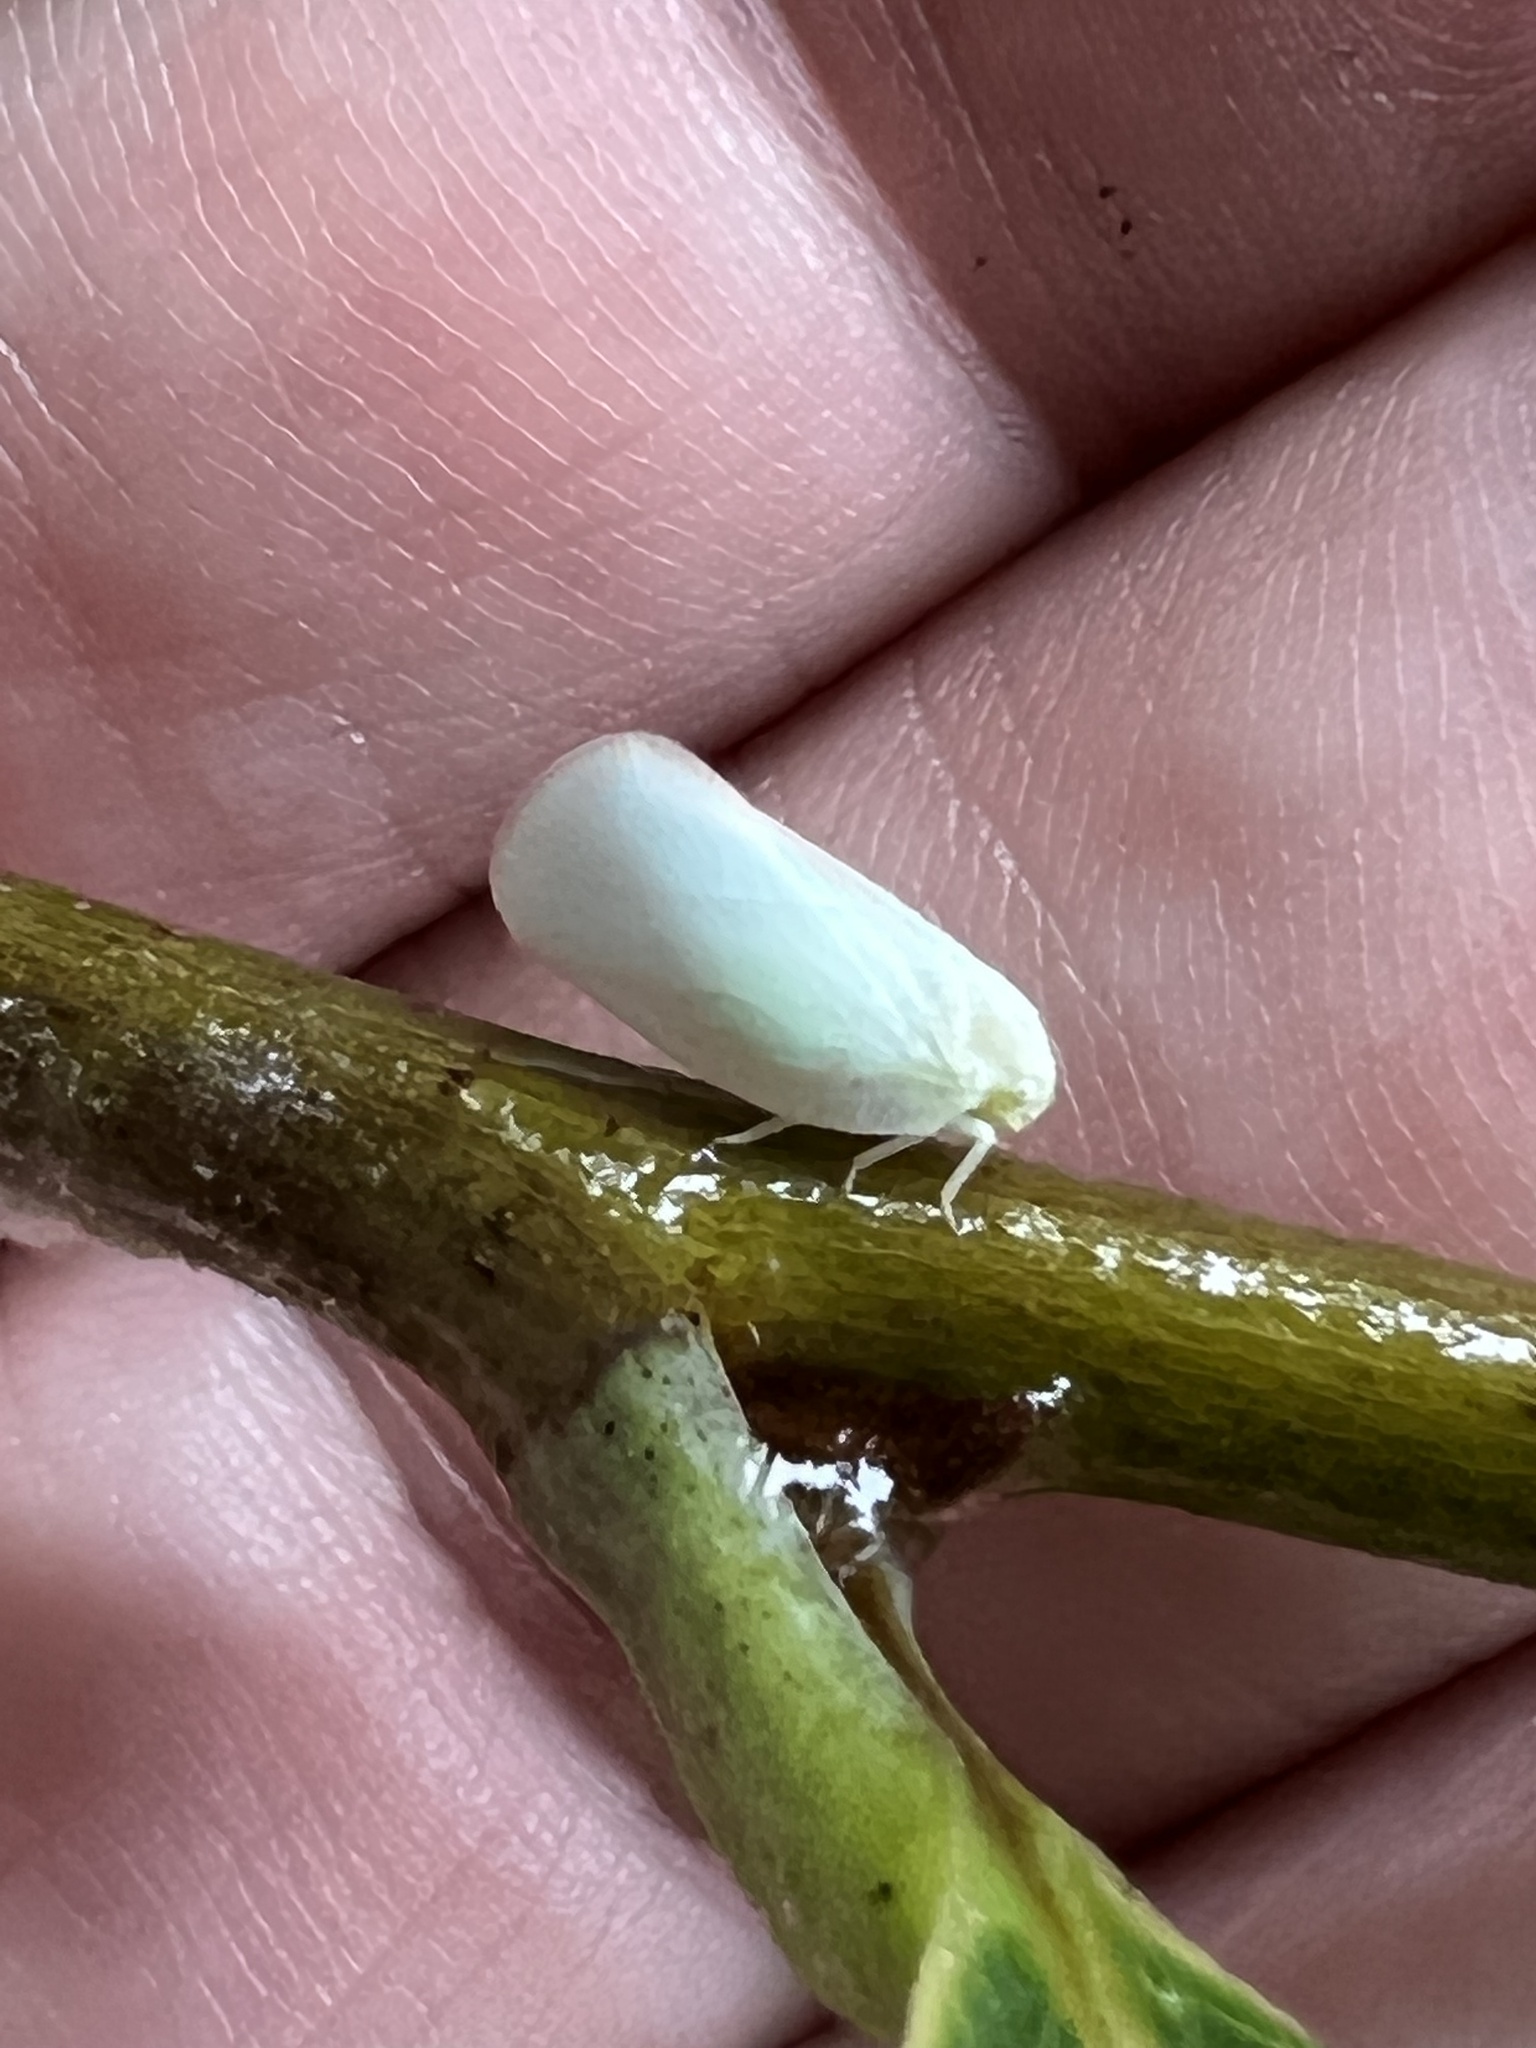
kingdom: Animalia
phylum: Arthropoda
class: Insecta
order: Hemiptera
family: Flatidae
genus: Ormenoides
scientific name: Ormenoides venusta
